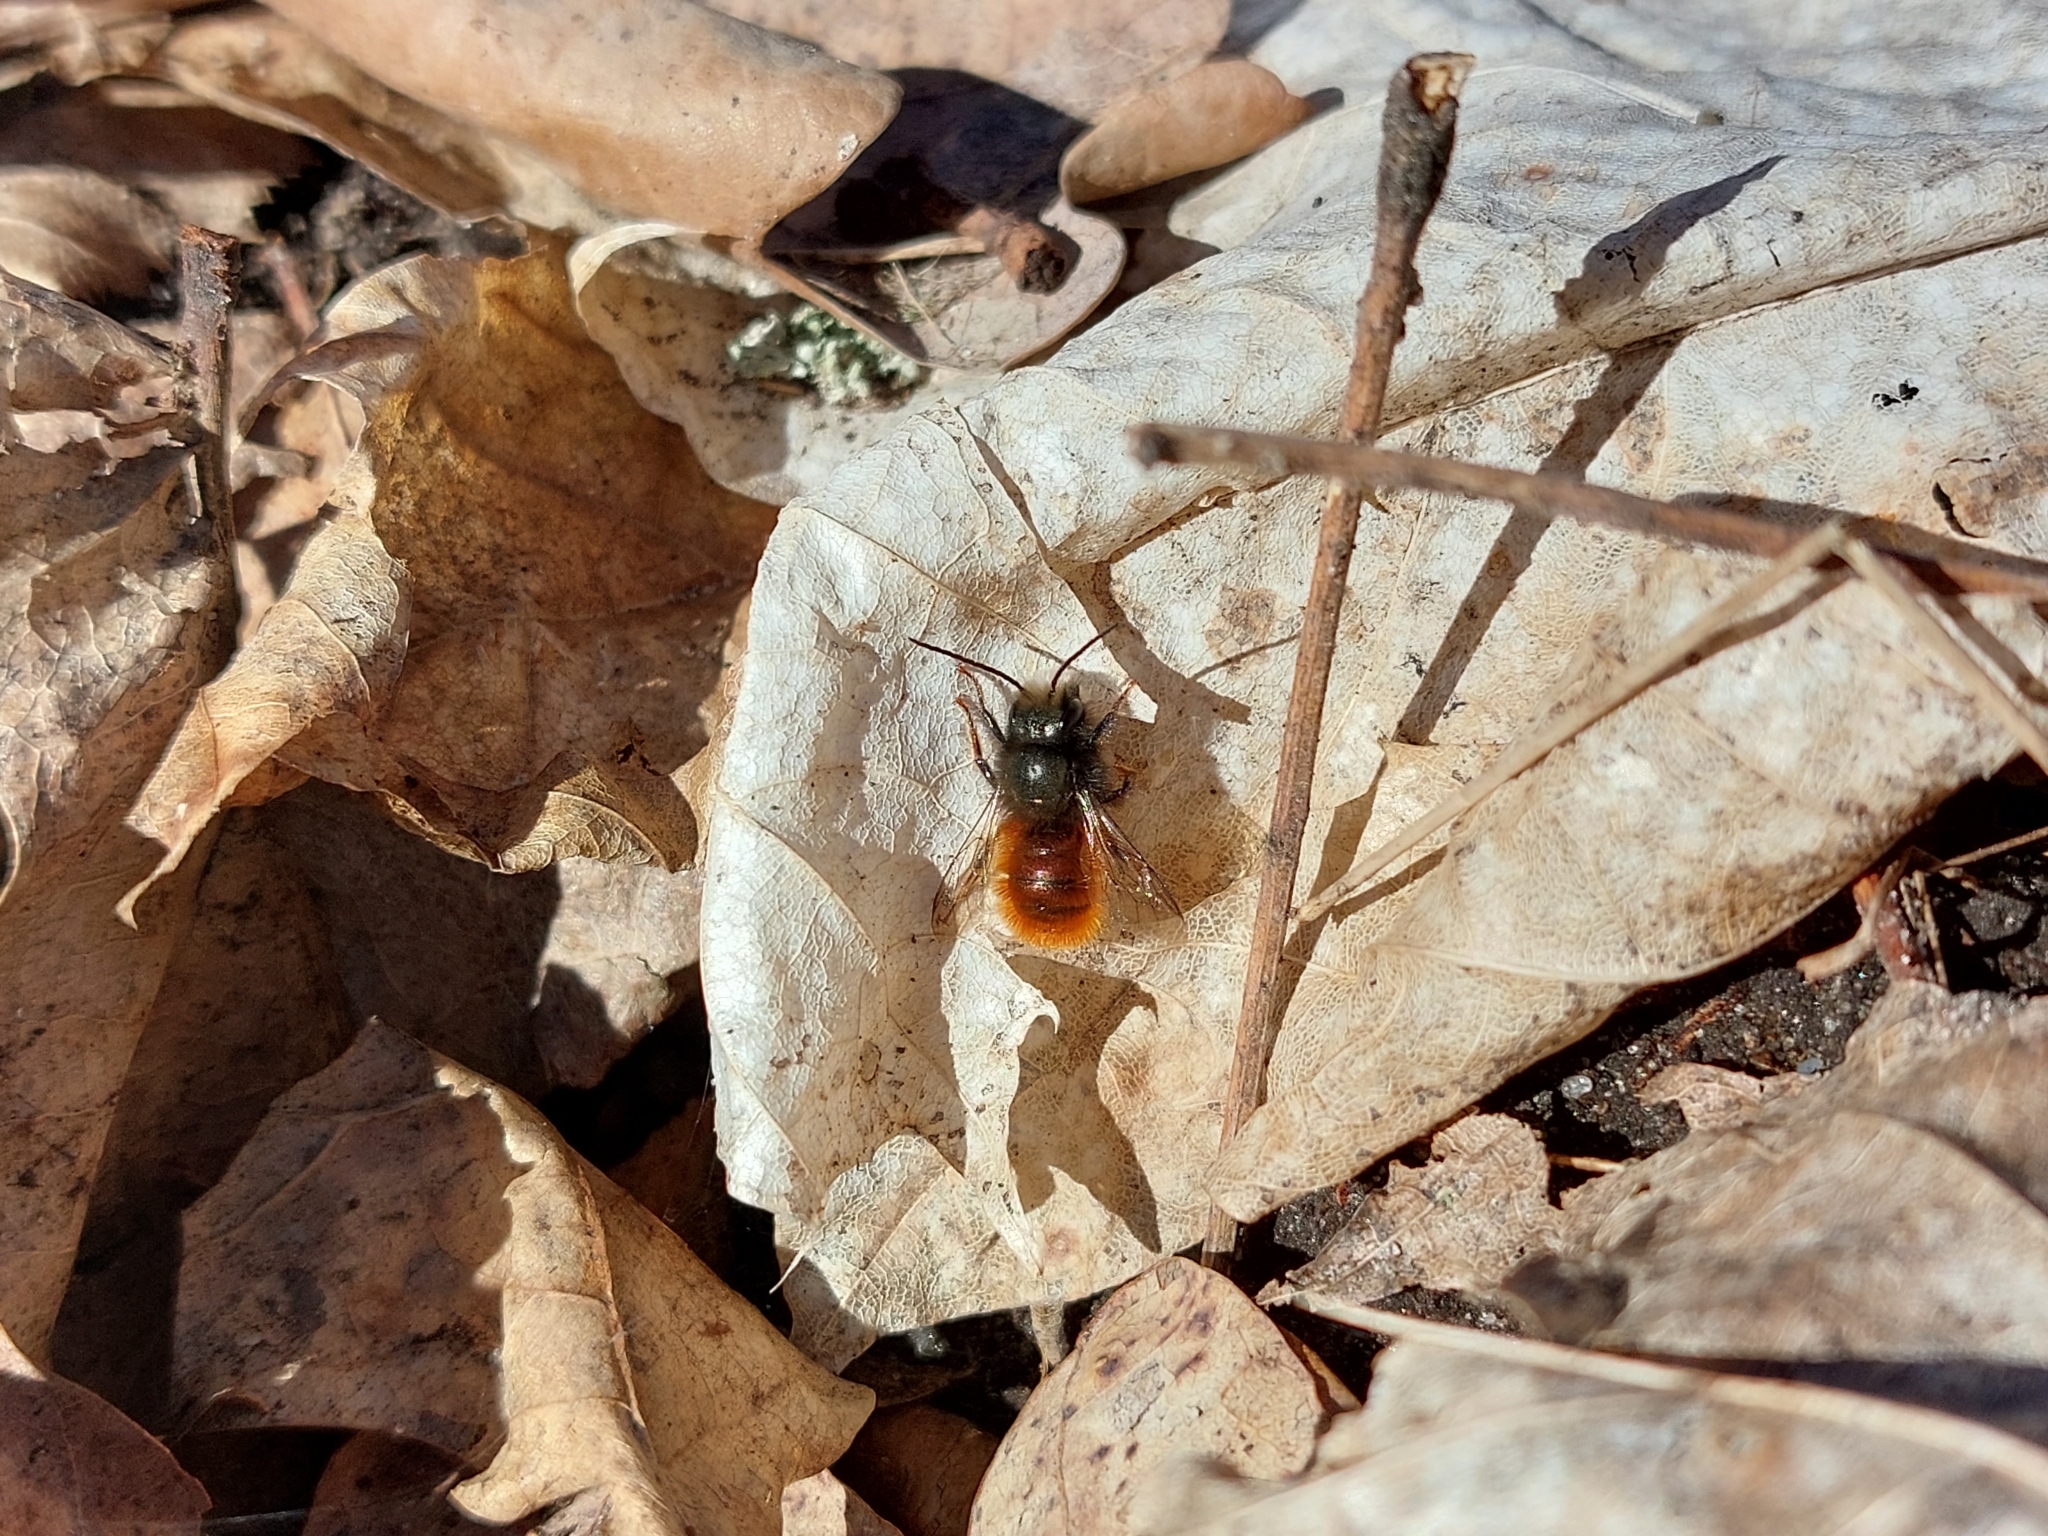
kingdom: Animalia
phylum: Arthropoda
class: Insecta
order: Hymenoptera
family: Megachilidae
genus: Osmia
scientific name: Osmia cornuta
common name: Mason bee
